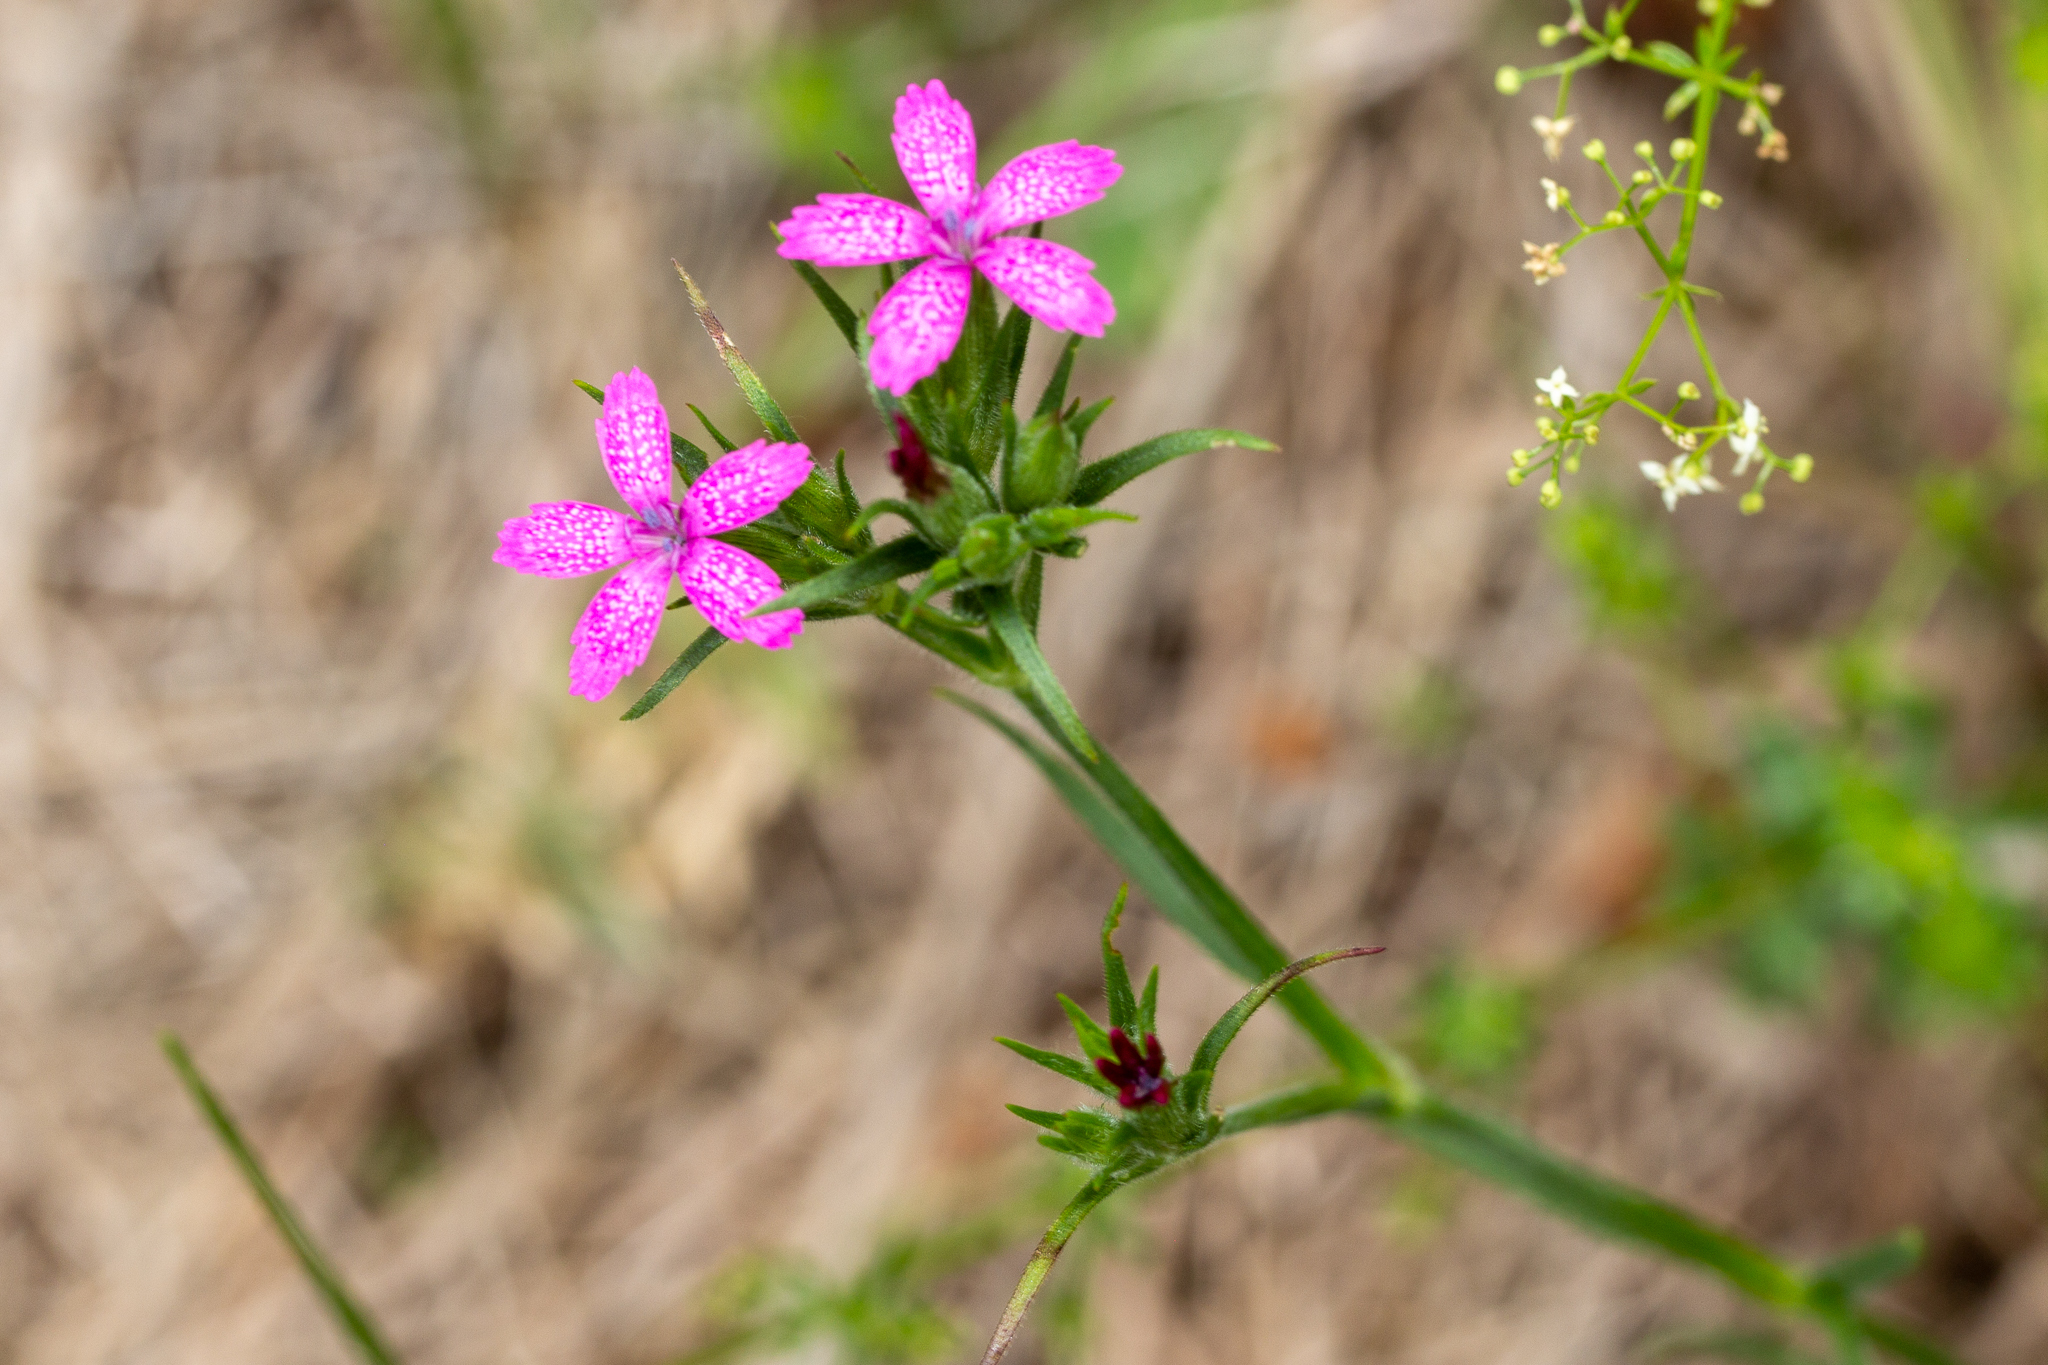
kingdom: Plantae
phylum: Tracheophyta
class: Magnoliopsida
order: Caryophyllales
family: Caryophyllaceae
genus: Dianthus
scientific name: Dianthus armeria
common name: Deptford pink
